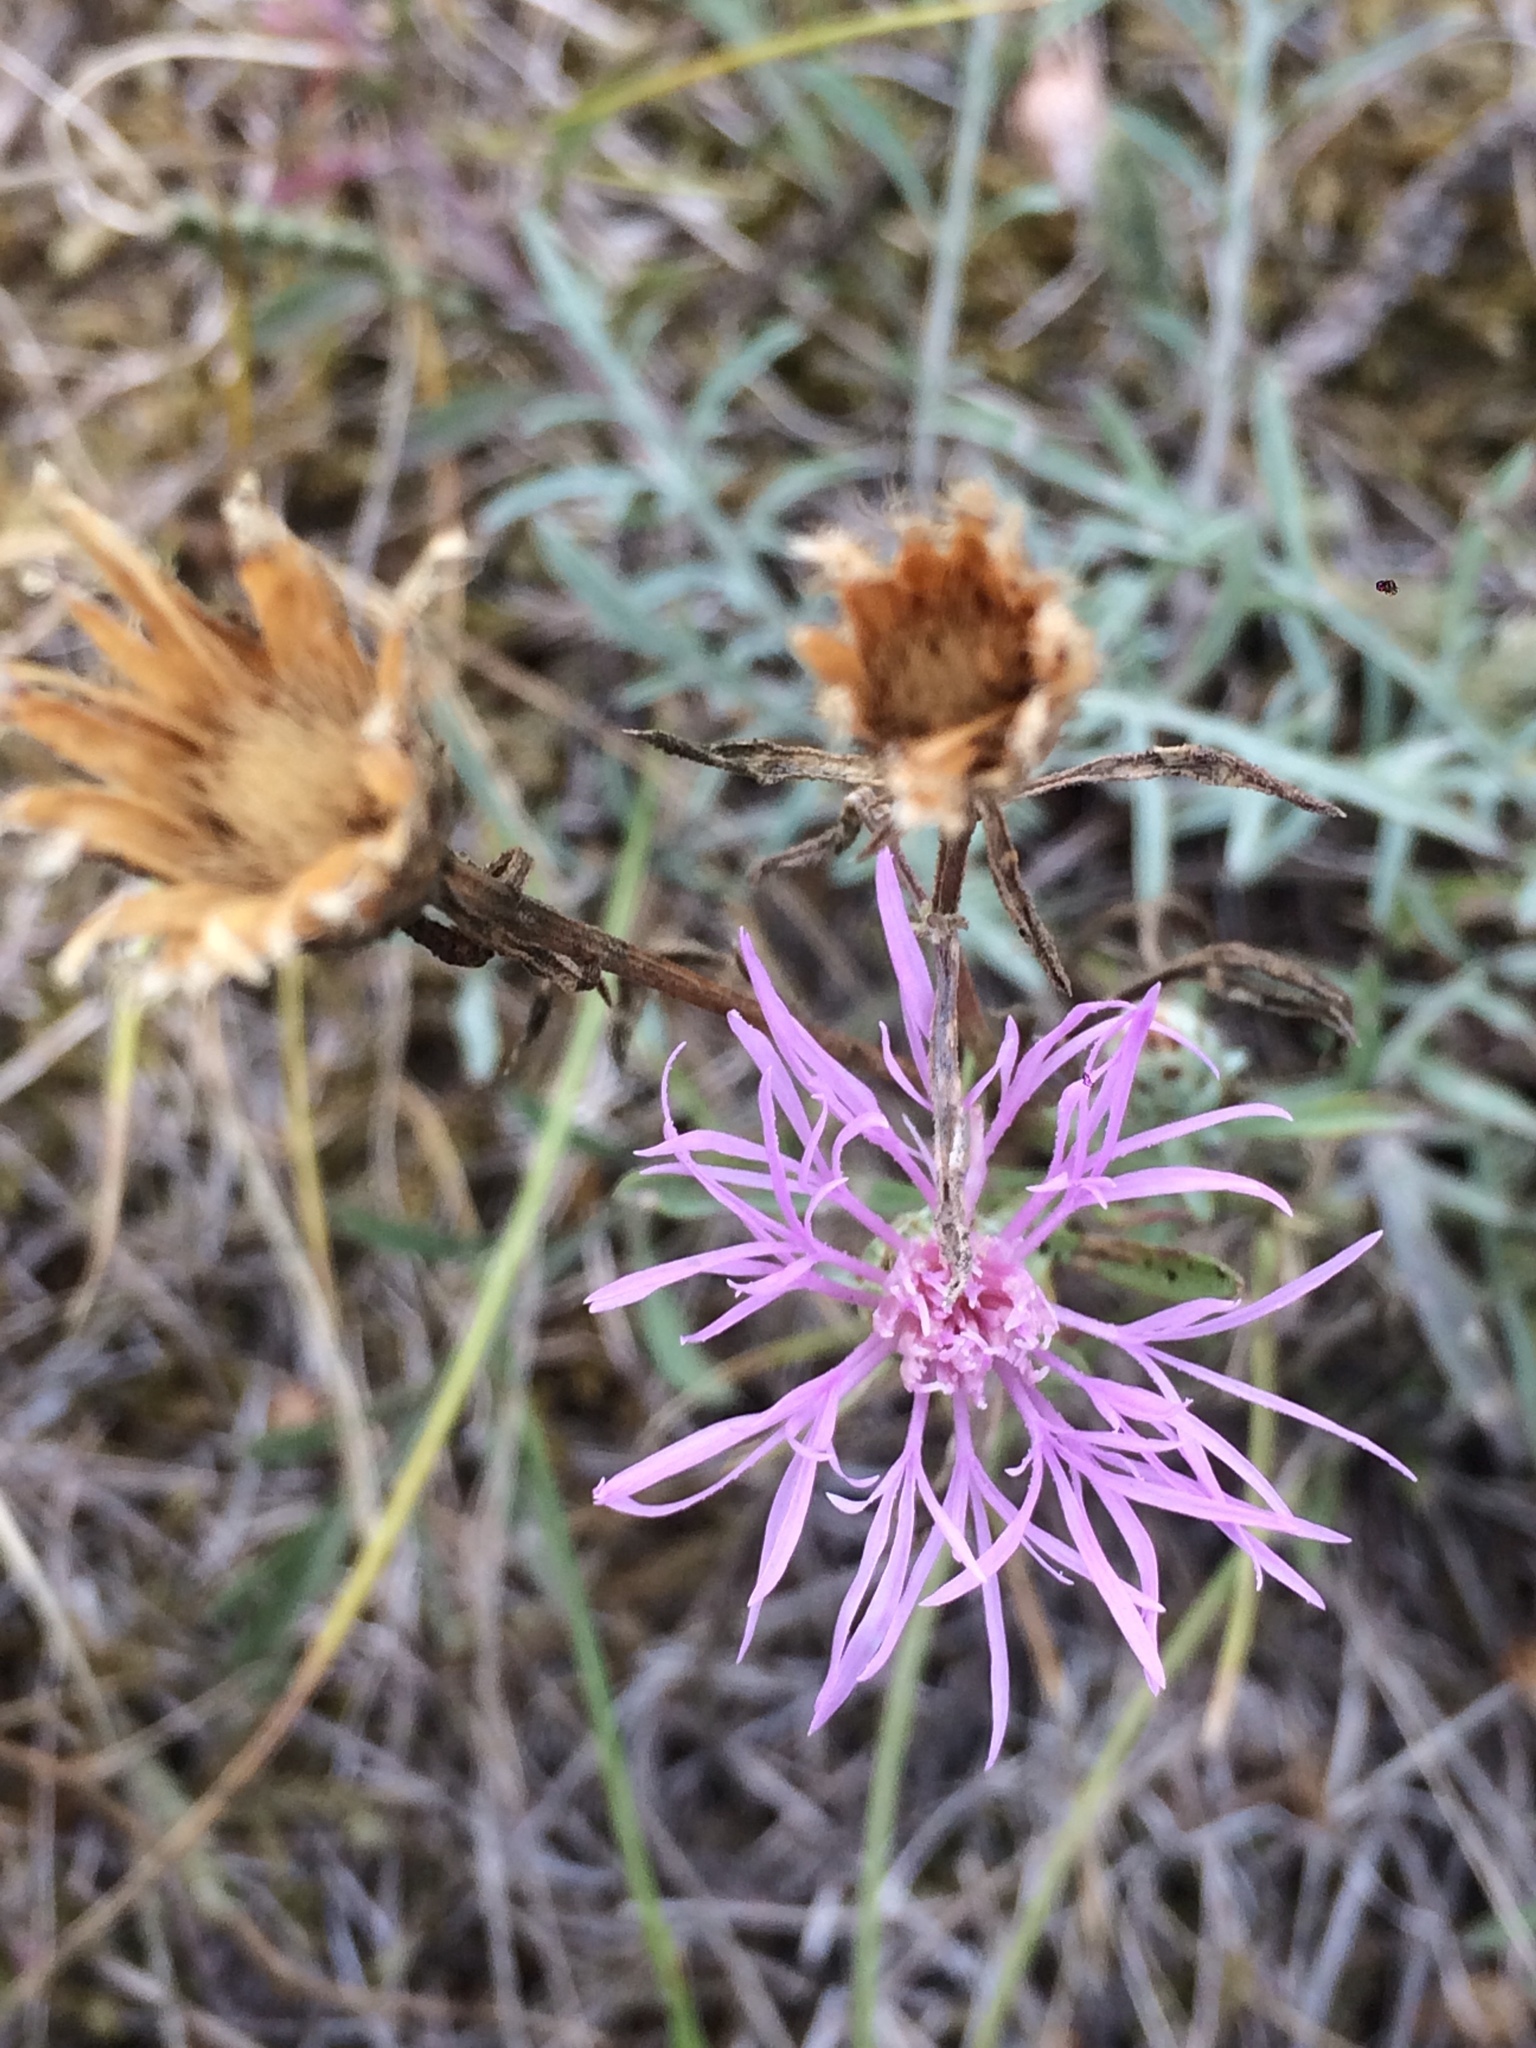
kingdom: Plantae
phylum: Tracheophyta
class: Magnoliopsida
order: Asterales
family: Asteraceae
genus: Centaurea
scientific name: Centaurea stoebe
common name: Spotted knapweed
